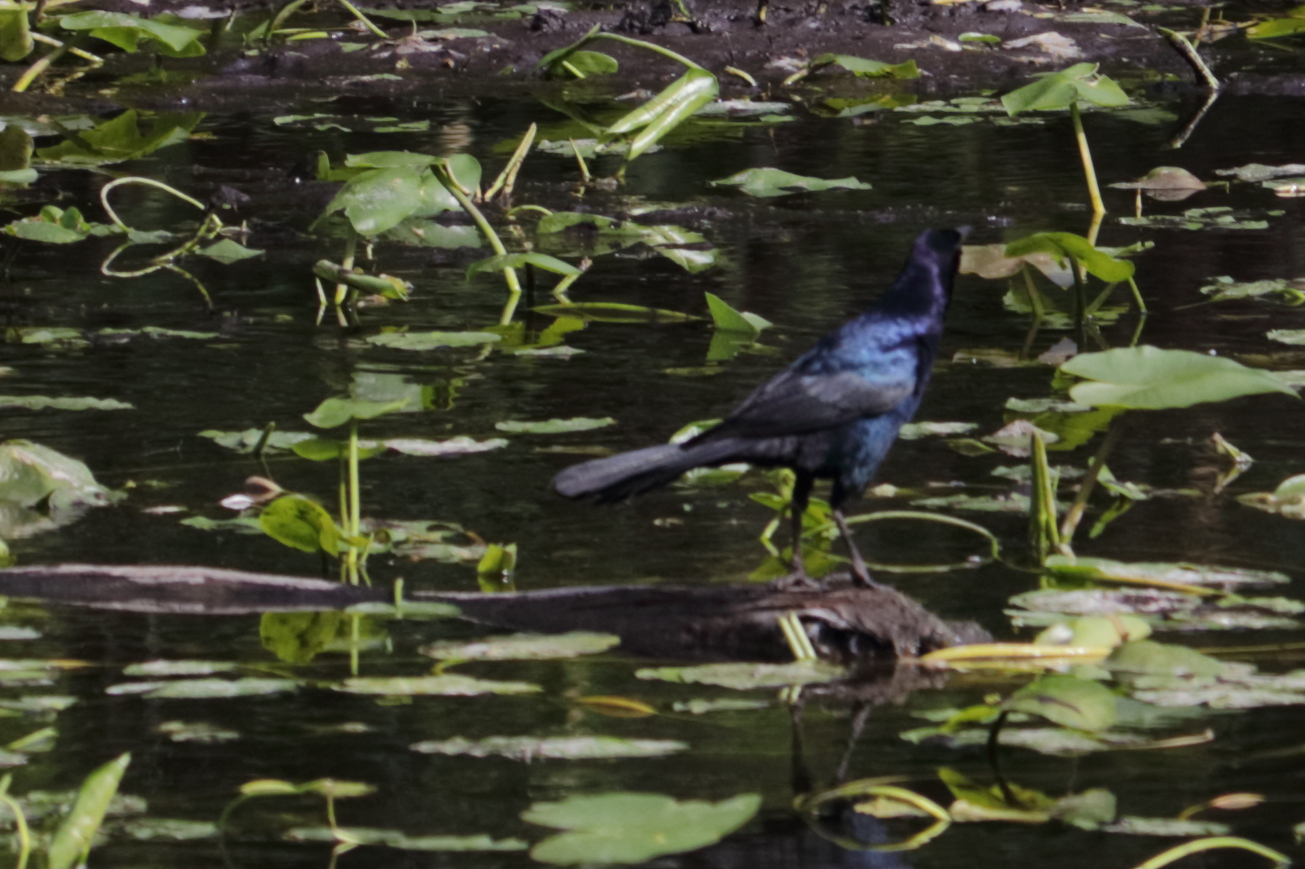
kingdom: Animalia
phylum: Chordata
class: Aves
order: Passeriformes
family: Icteridae
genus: Quiscalus
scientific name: Quiscalus major
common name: Boat-tailed grackle
